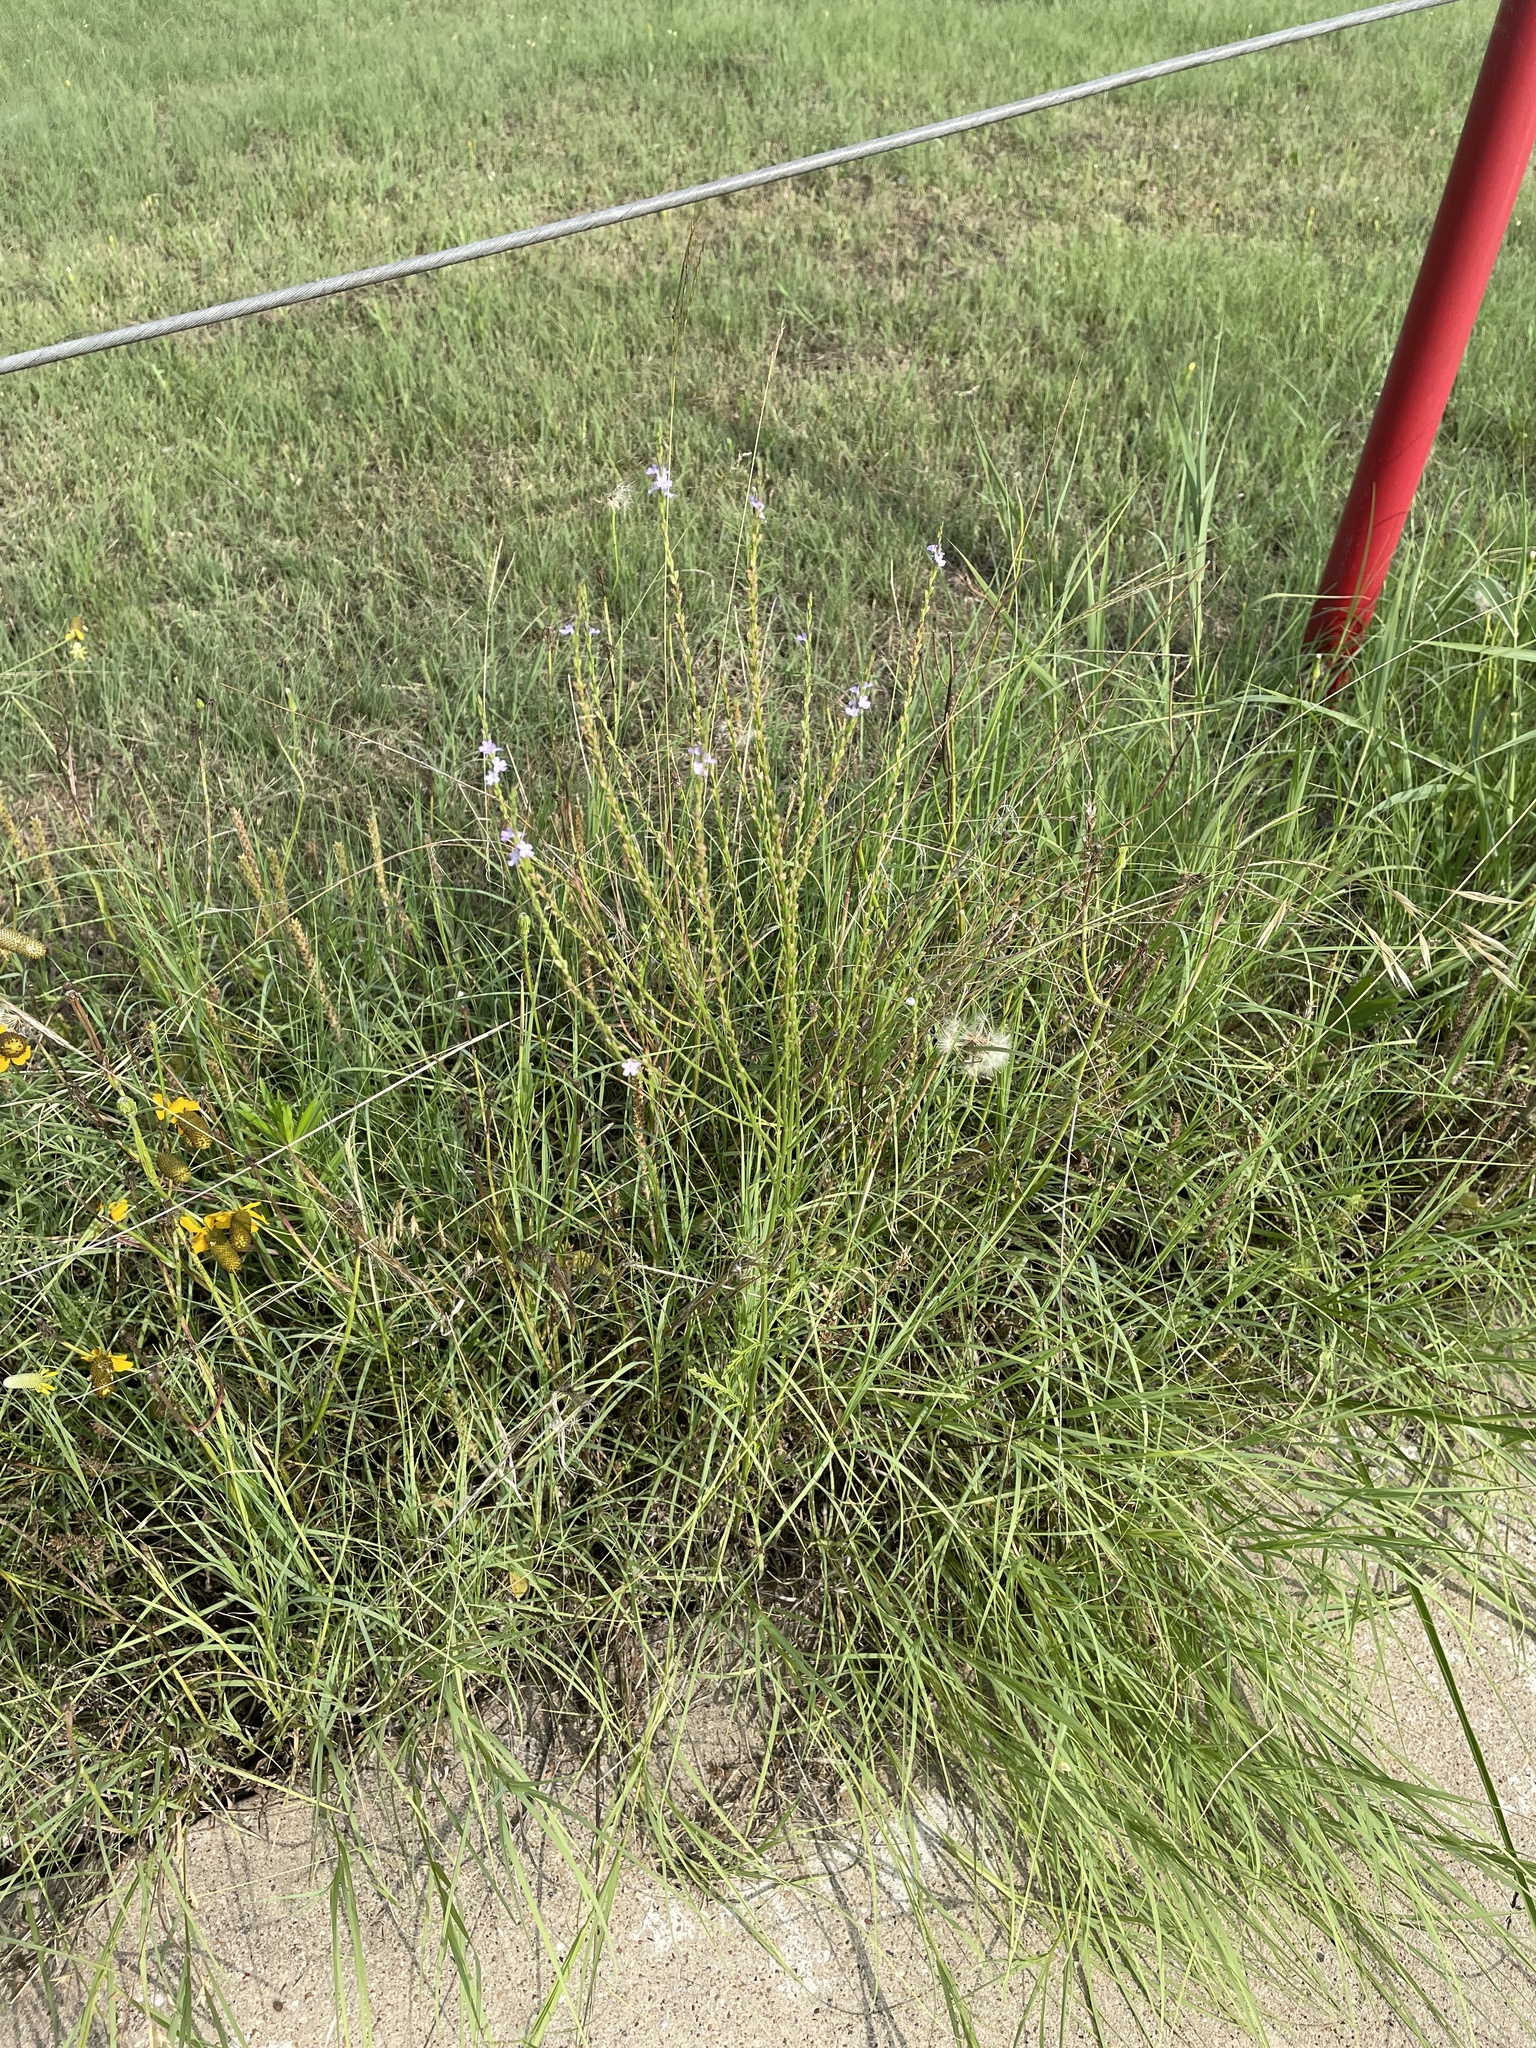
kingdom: Plantae
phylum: Tracheophyta
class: Magnoliopsida
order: Lamiales
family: Verbenaceae
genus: Verbena
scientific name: Verbena halei
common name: Texas vervain
